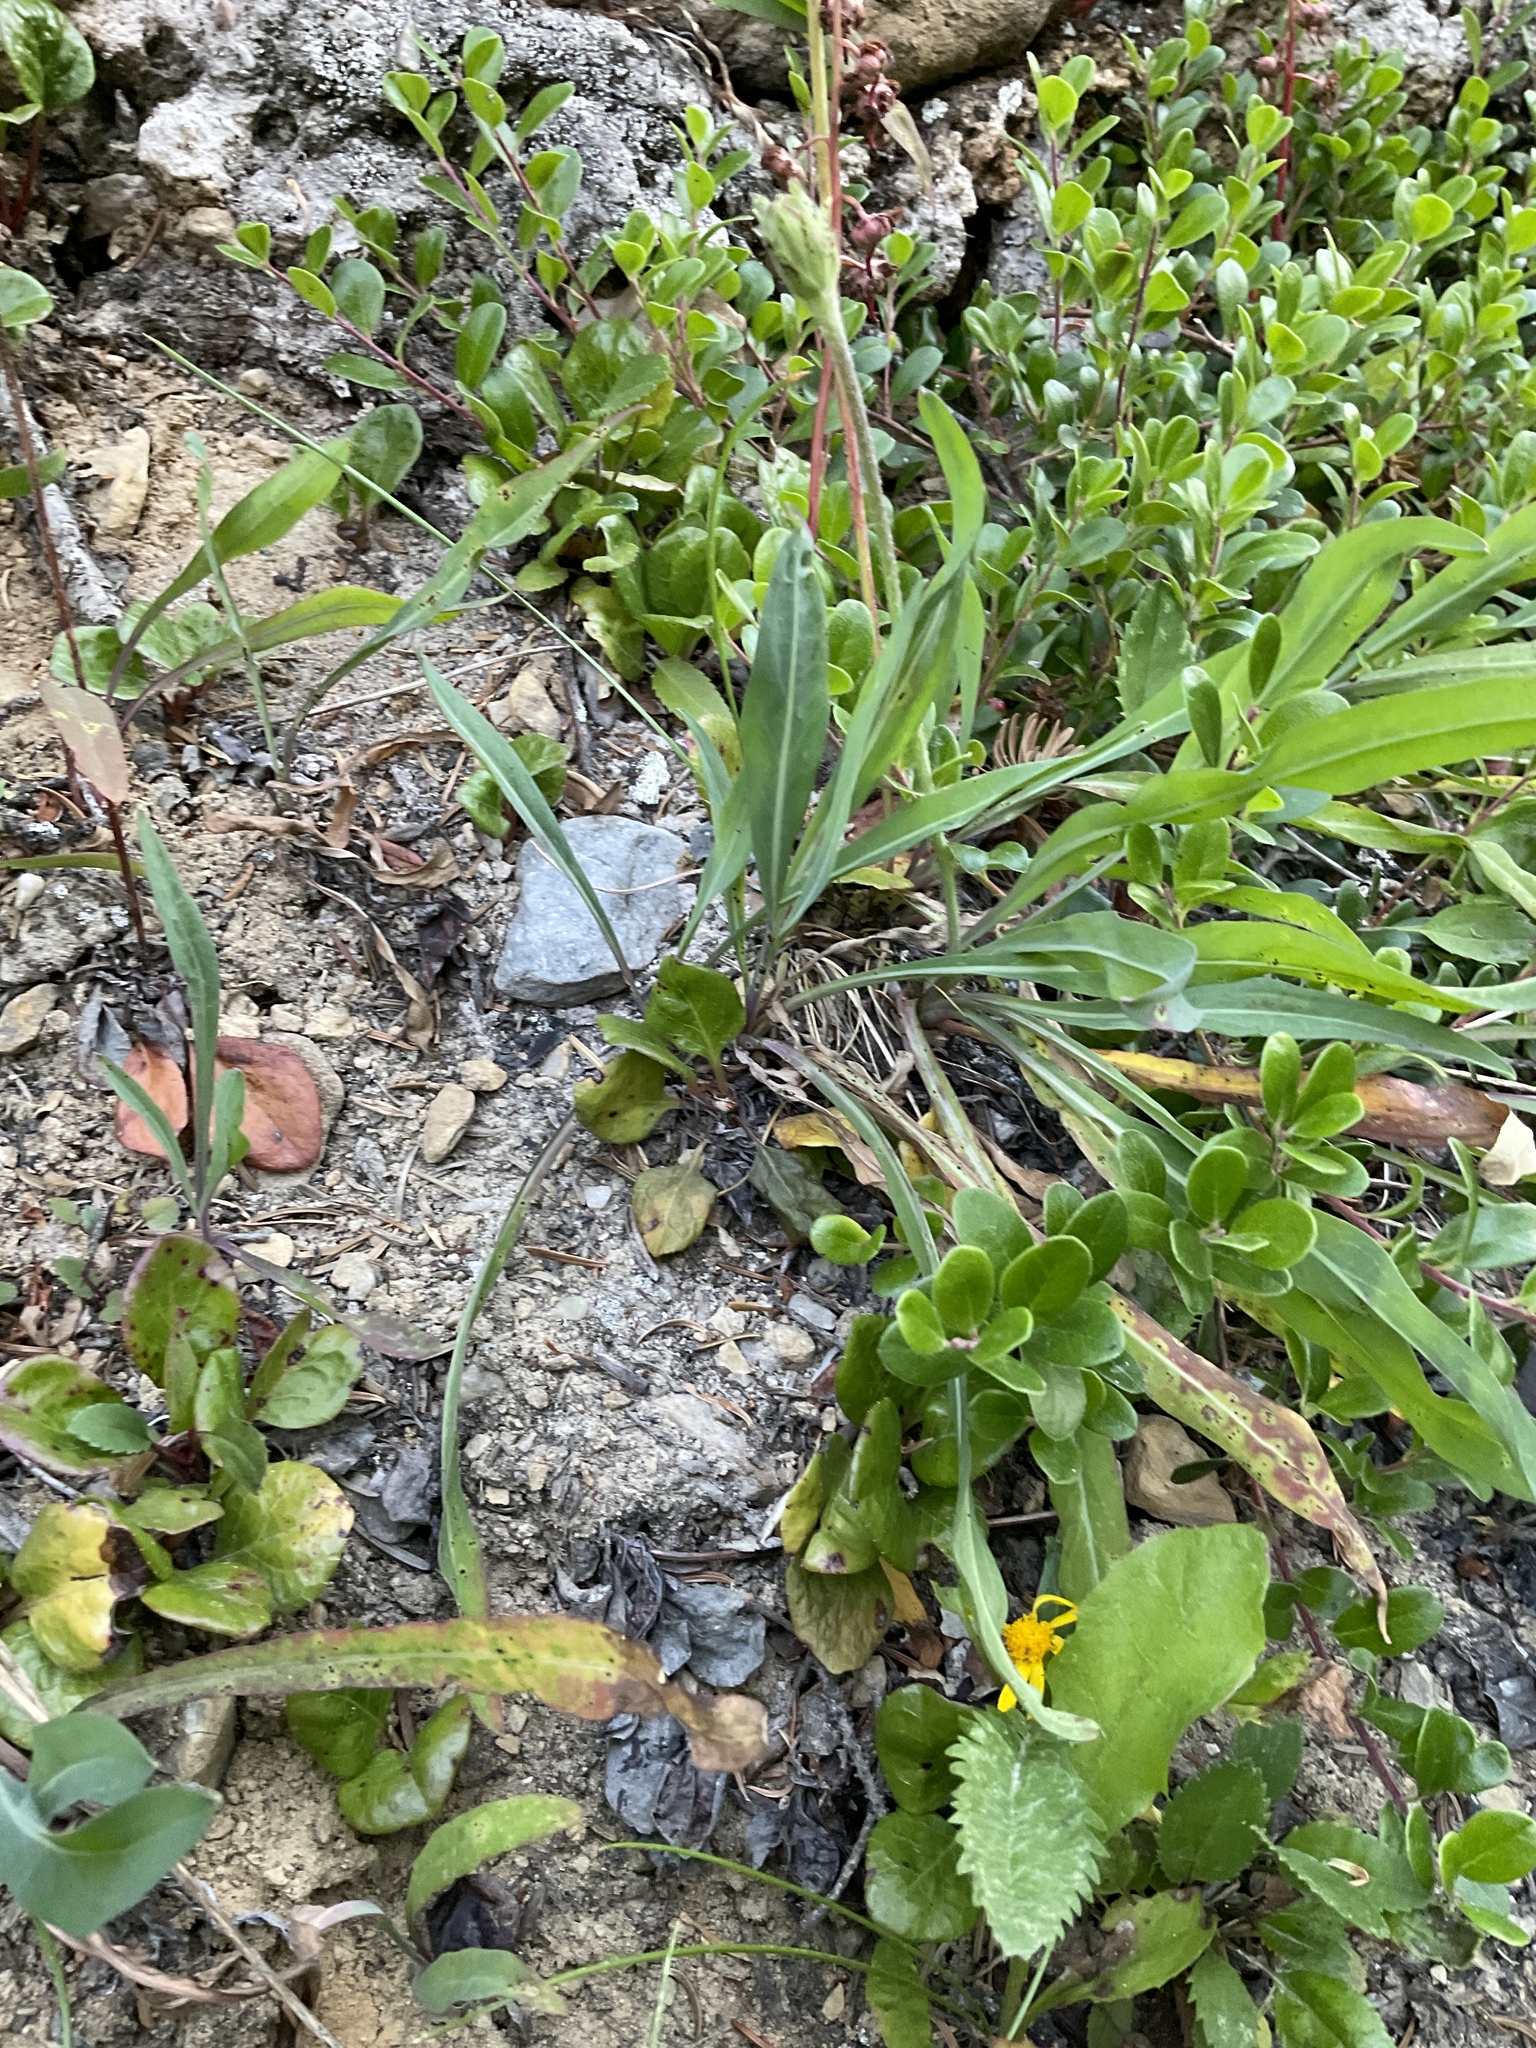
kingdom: Plantae
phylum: Tracheophyta
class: Magnoliopsida
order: Asterales
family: Asteraceae
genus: Agoseris
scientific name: Agoseris glauca
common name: Prairie agoseris
